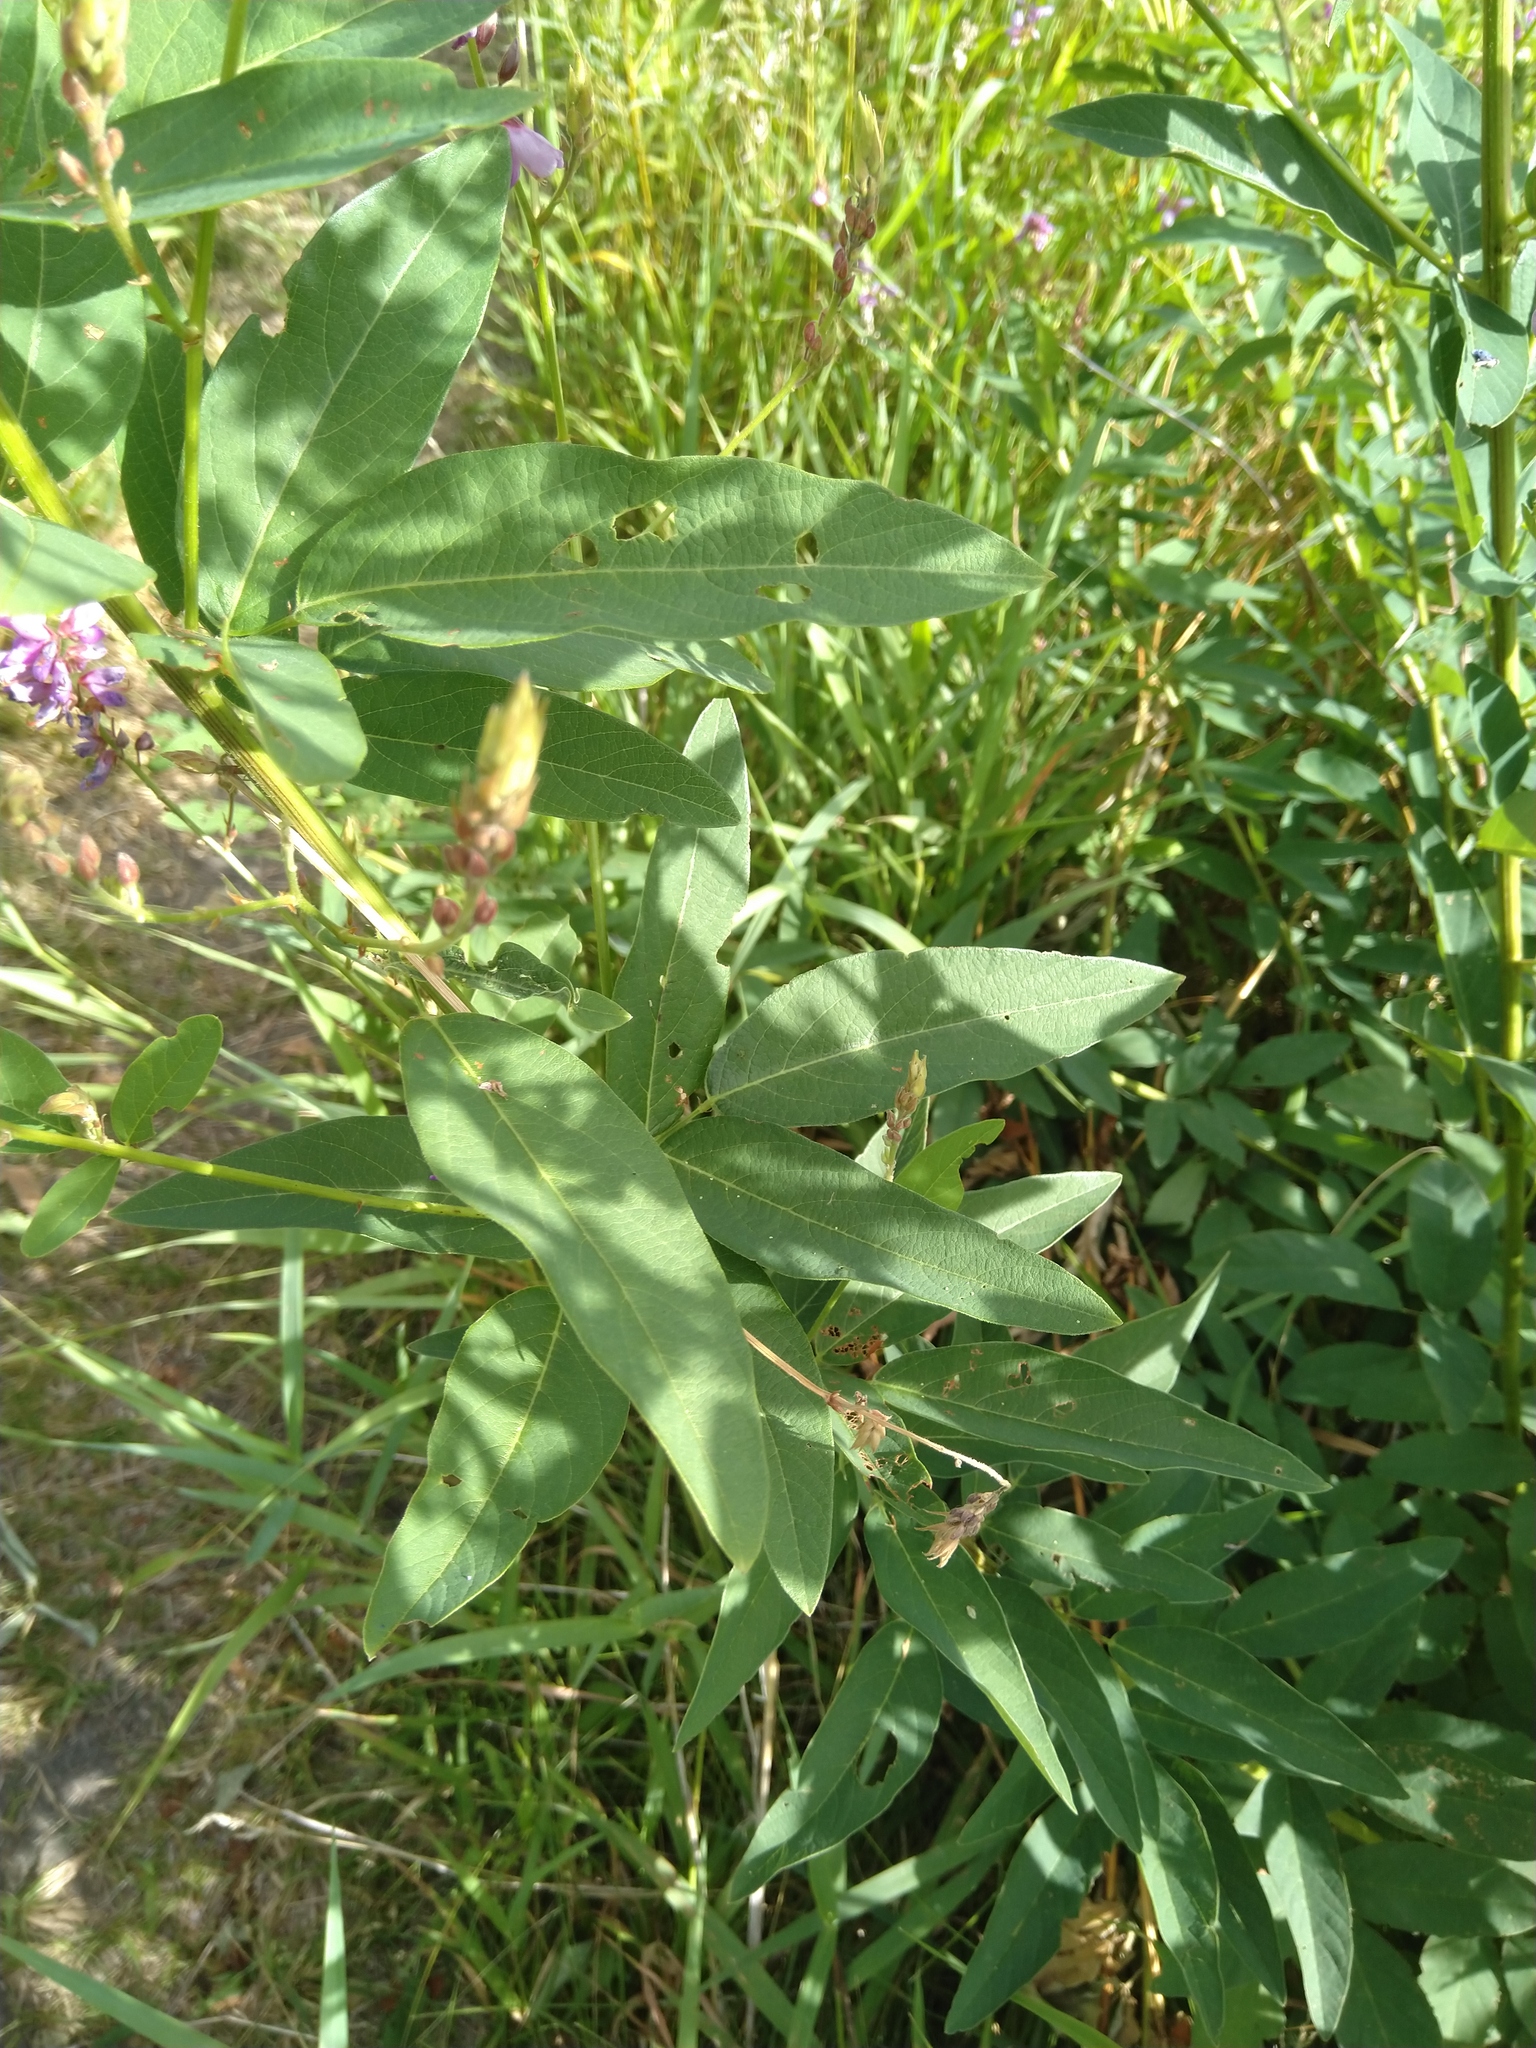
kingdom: Plantae
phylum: Tracheophyta
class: Magnoliopsida
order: Fabales
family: Fabaceae
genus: Desmodium
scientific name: Desmodium canadense
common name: Canada tick-trefoil
